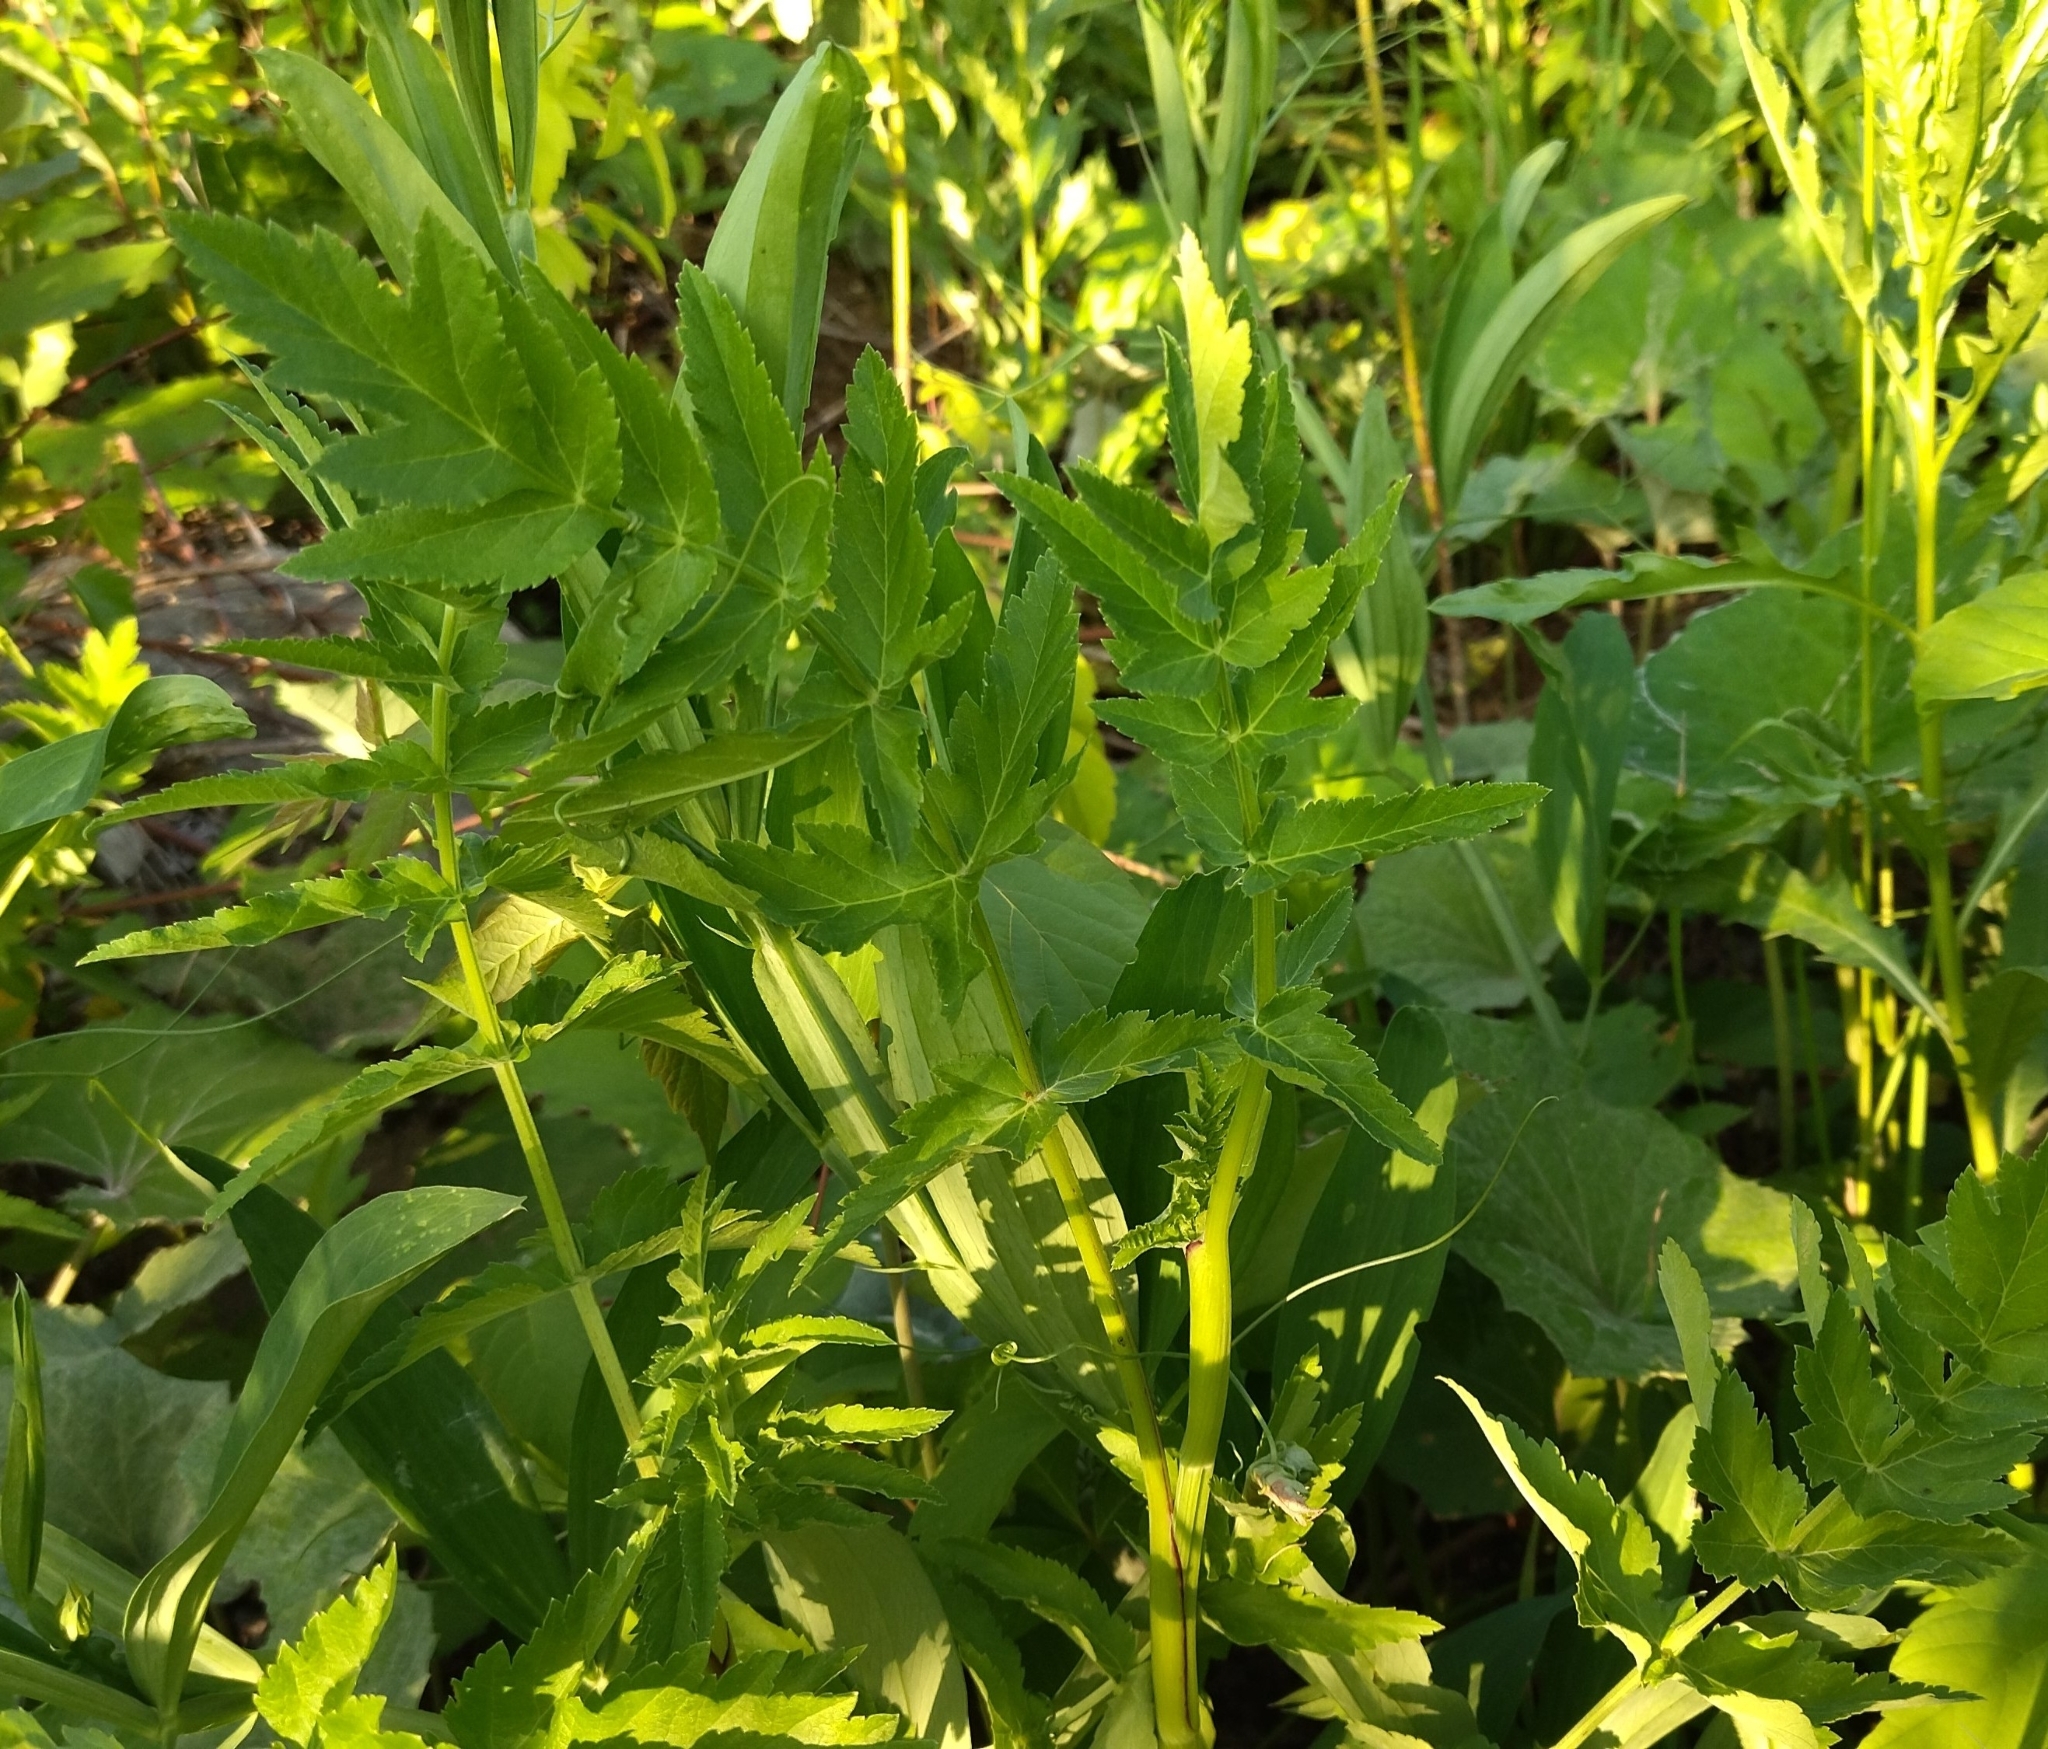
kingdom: Plantae
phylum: Tracheophyta
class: Magnoliopsida
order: Apiales
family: Apiaceae
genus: Pastinaca
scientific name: Pastinaca sativa
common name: Wild parsnip
